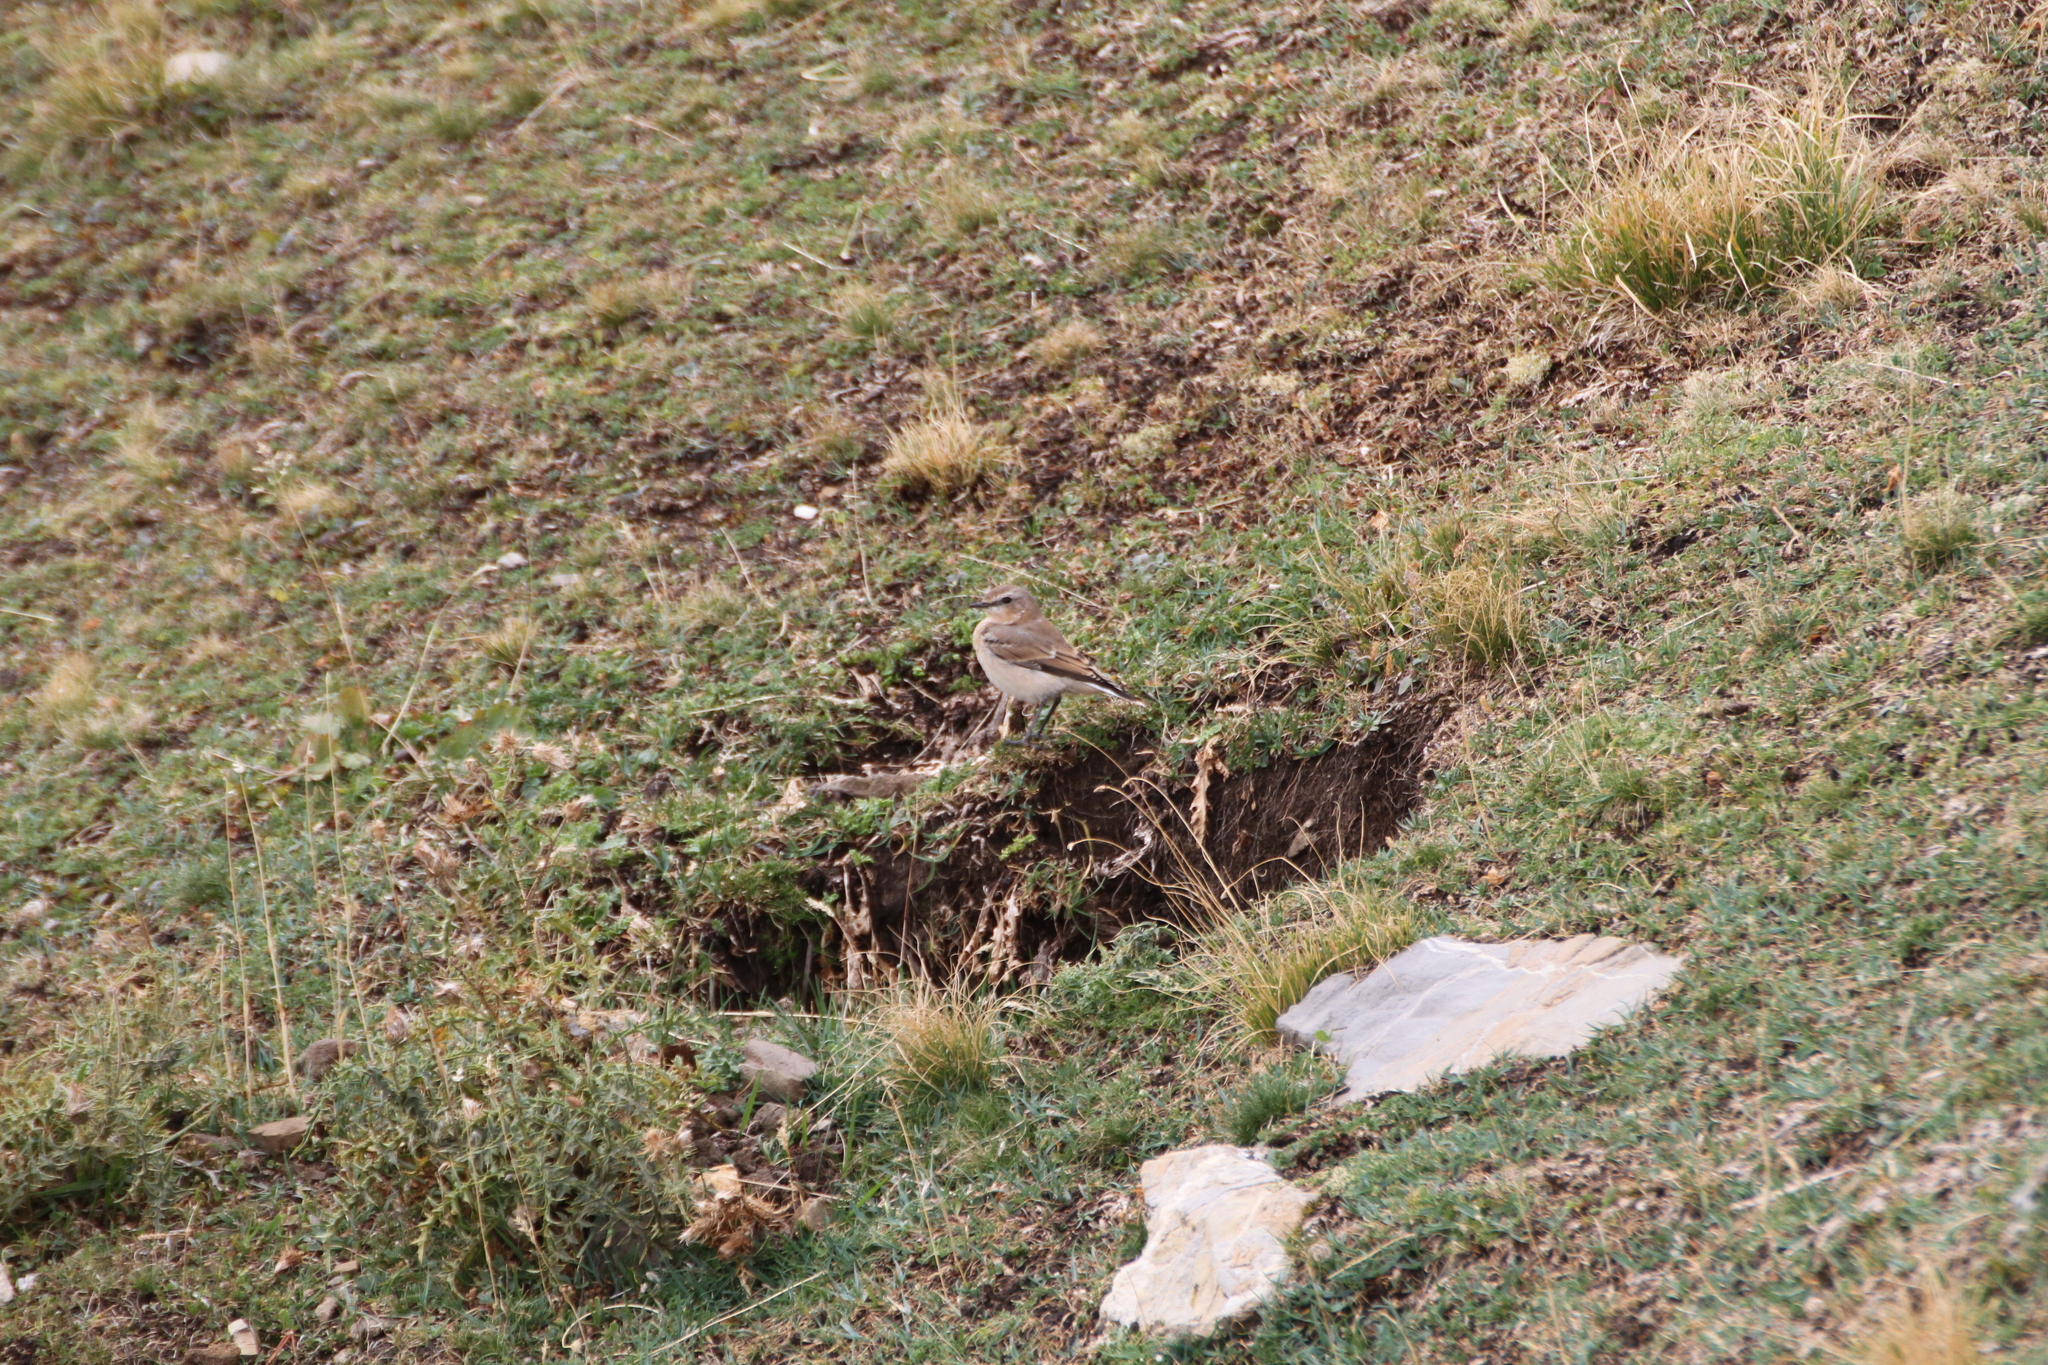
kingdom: Animalia
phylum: Chordata
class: Aves
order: Passeriformes
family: Muscicapidae
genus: Oenanthe
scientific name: Oenanthe oenanthe
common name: Northern wheatear
